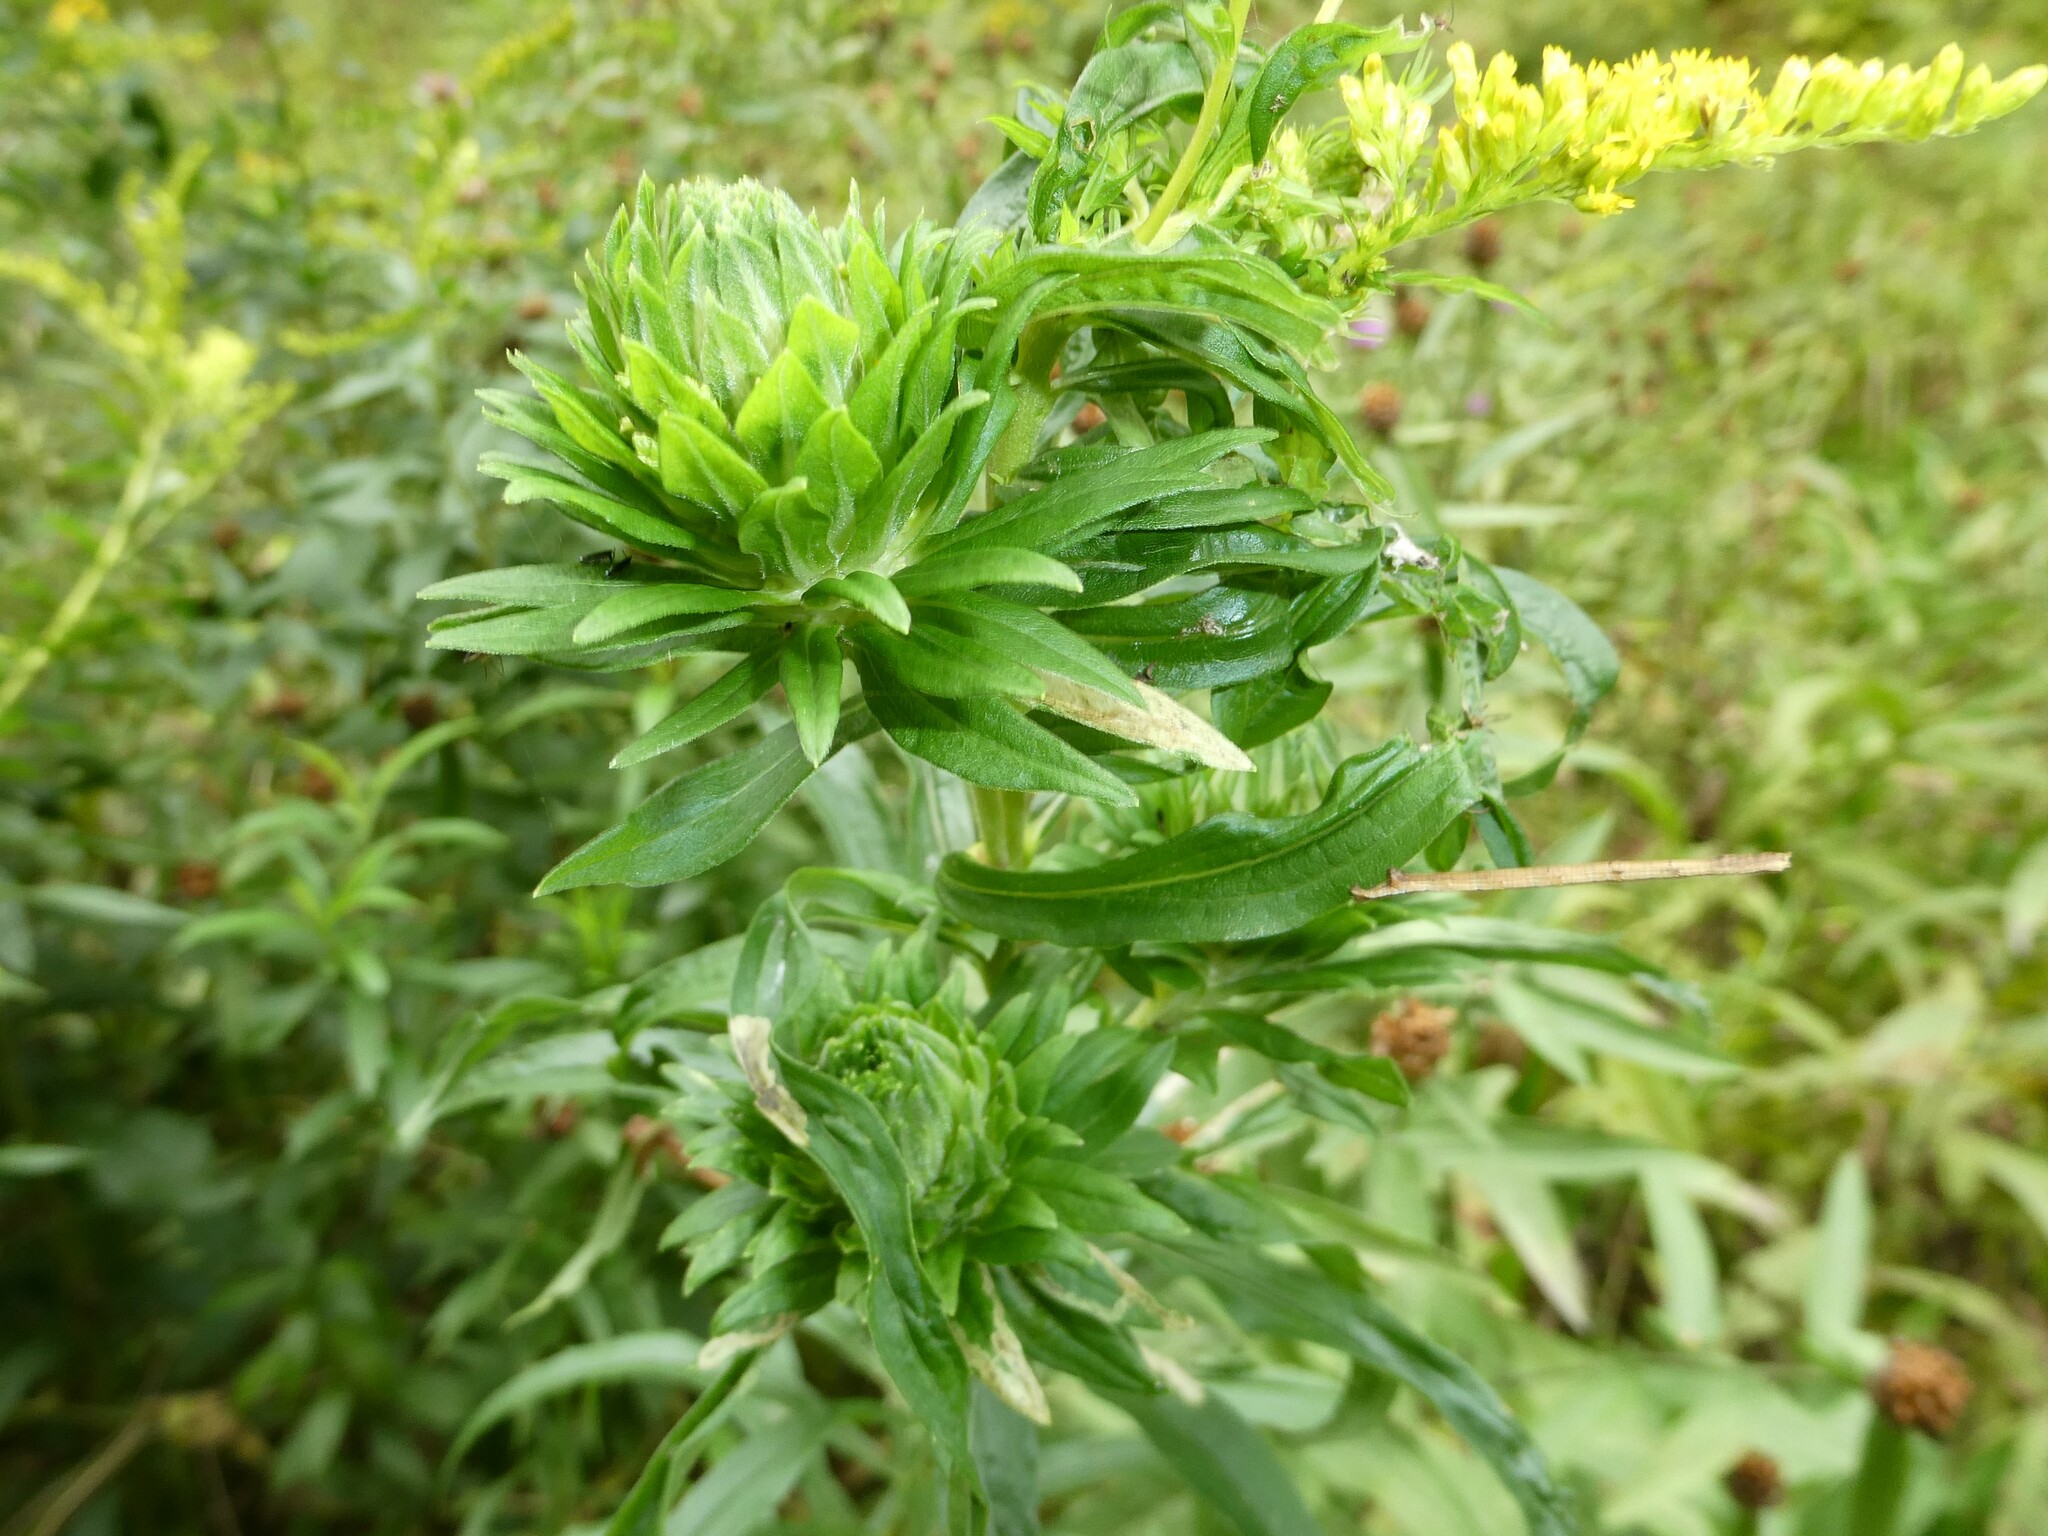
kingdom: Animalia
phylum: Arthropoda
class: Insecta
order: Diptera
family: Tephritidae
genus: Procecidochares
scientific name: Procecidochares atra
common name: Goldenrod brussels sprout gall fly
